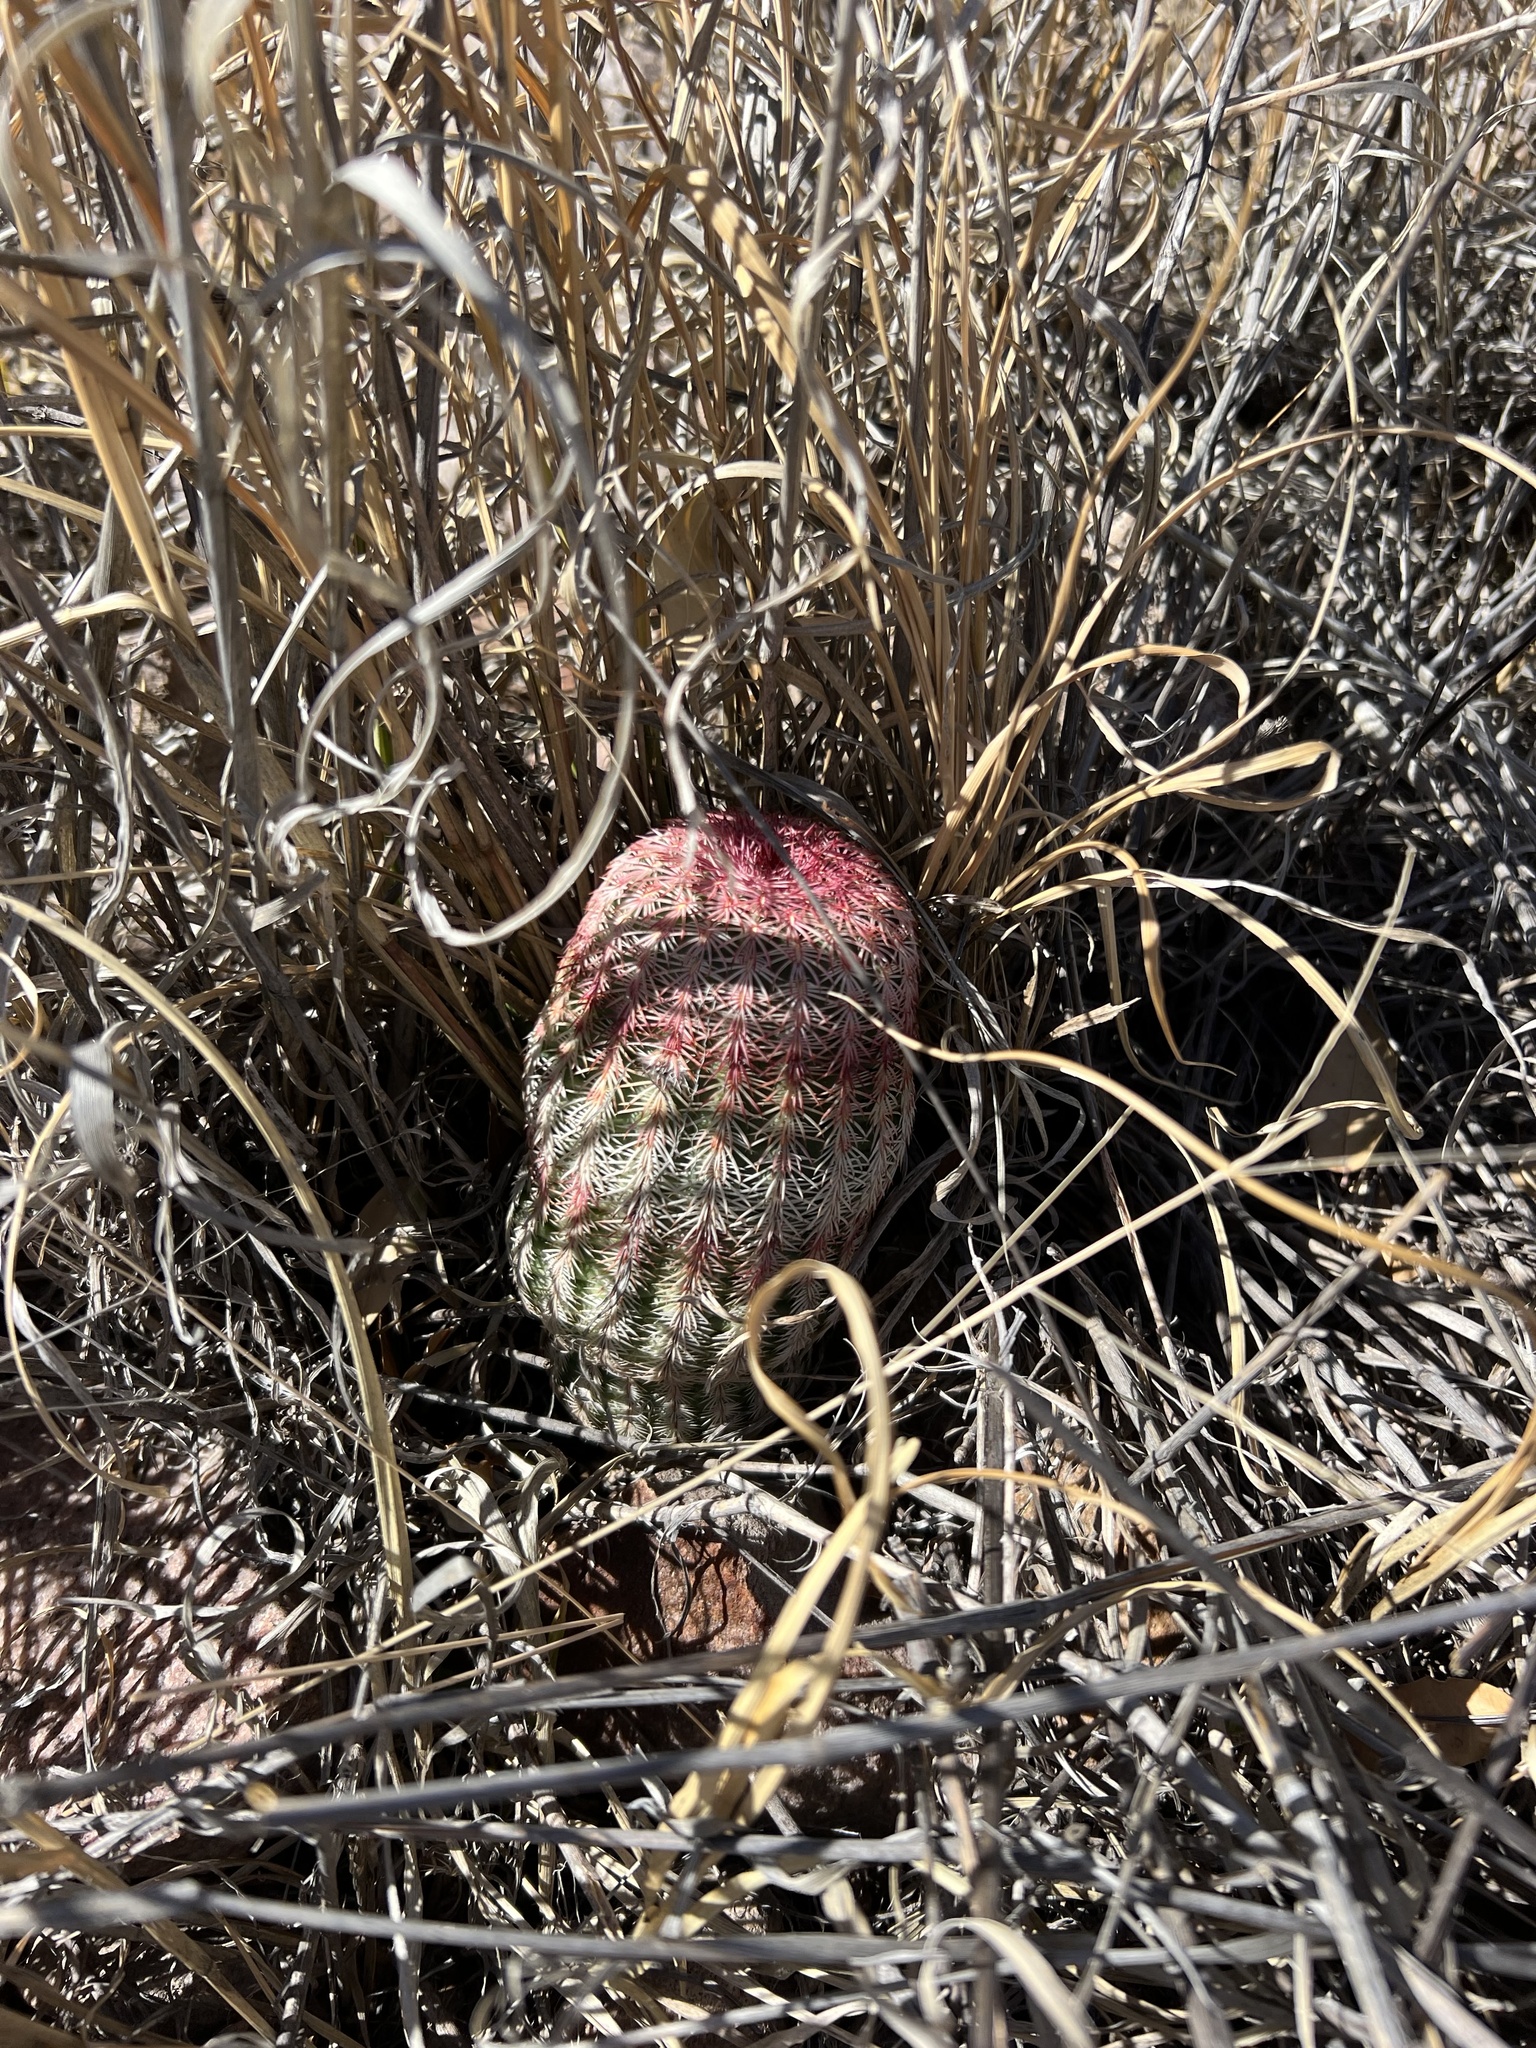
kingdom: Plantae
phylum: Tracheophyta
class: Magnoliopsida
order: Caryophyllales
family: Cactaceae
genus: Echinocereus
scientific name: Echinocereus rigidissimus
